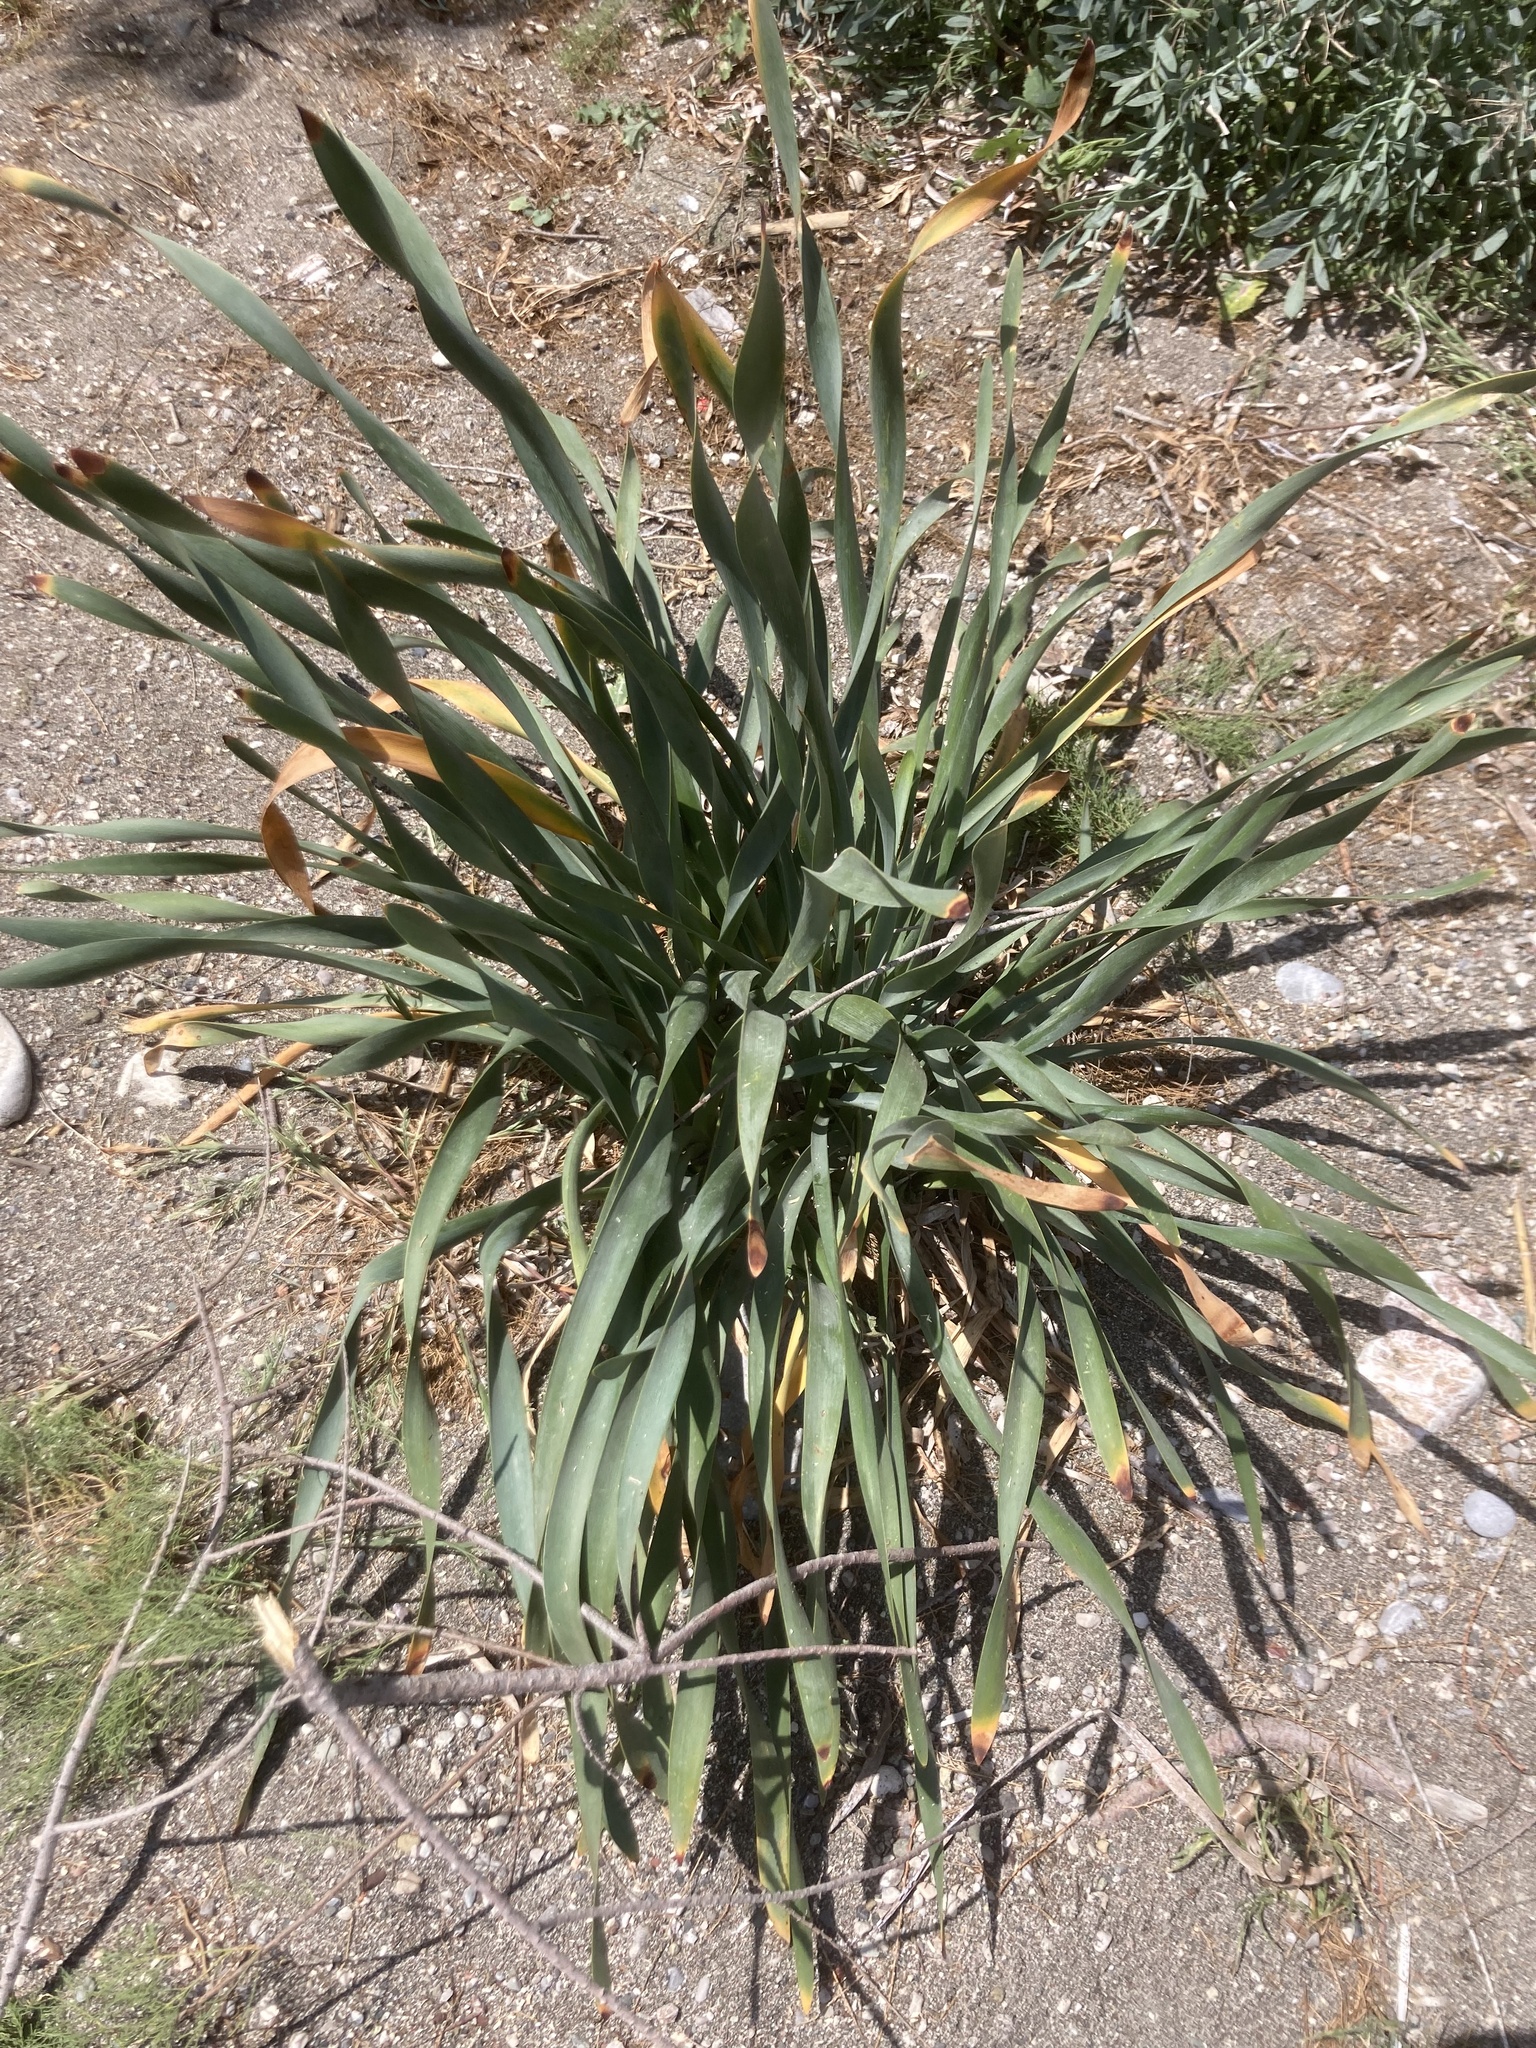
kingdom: Plantae
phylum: Tracheophyta
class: Liliopsida
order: Asparagales
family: Amaryllidaceae
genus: Pancratium
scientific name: Pancratium maritimum
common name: Sea-daffodil
